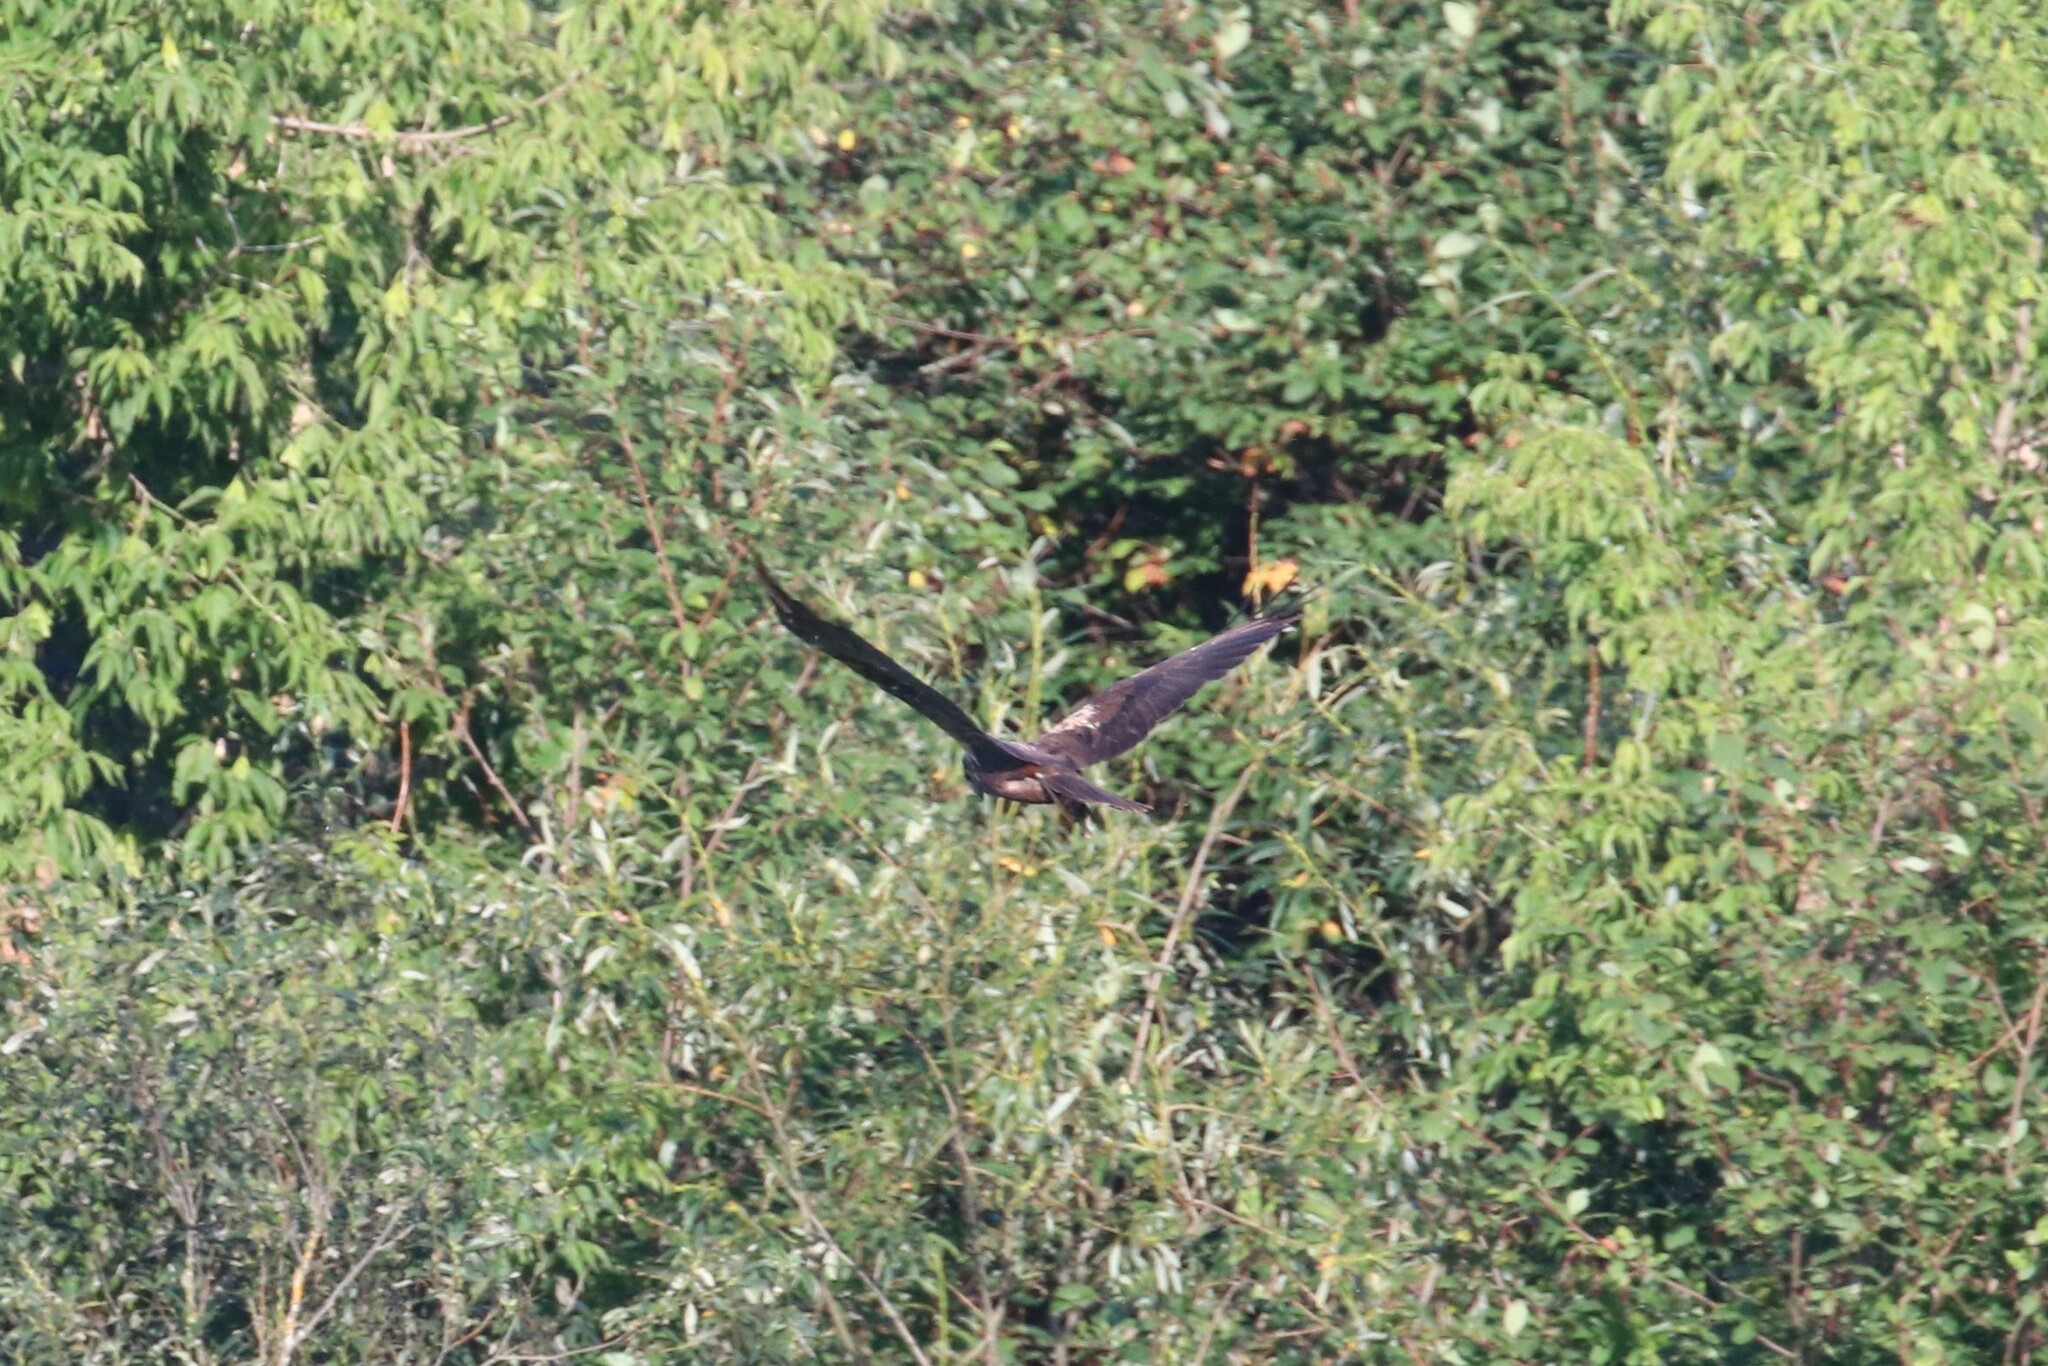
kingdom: Animalia
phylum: Chordata
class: Aves
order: Accipitriformes
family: Accipitridae
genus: Circus
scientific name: Circus aeruginosus
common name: Western marsh harrier
